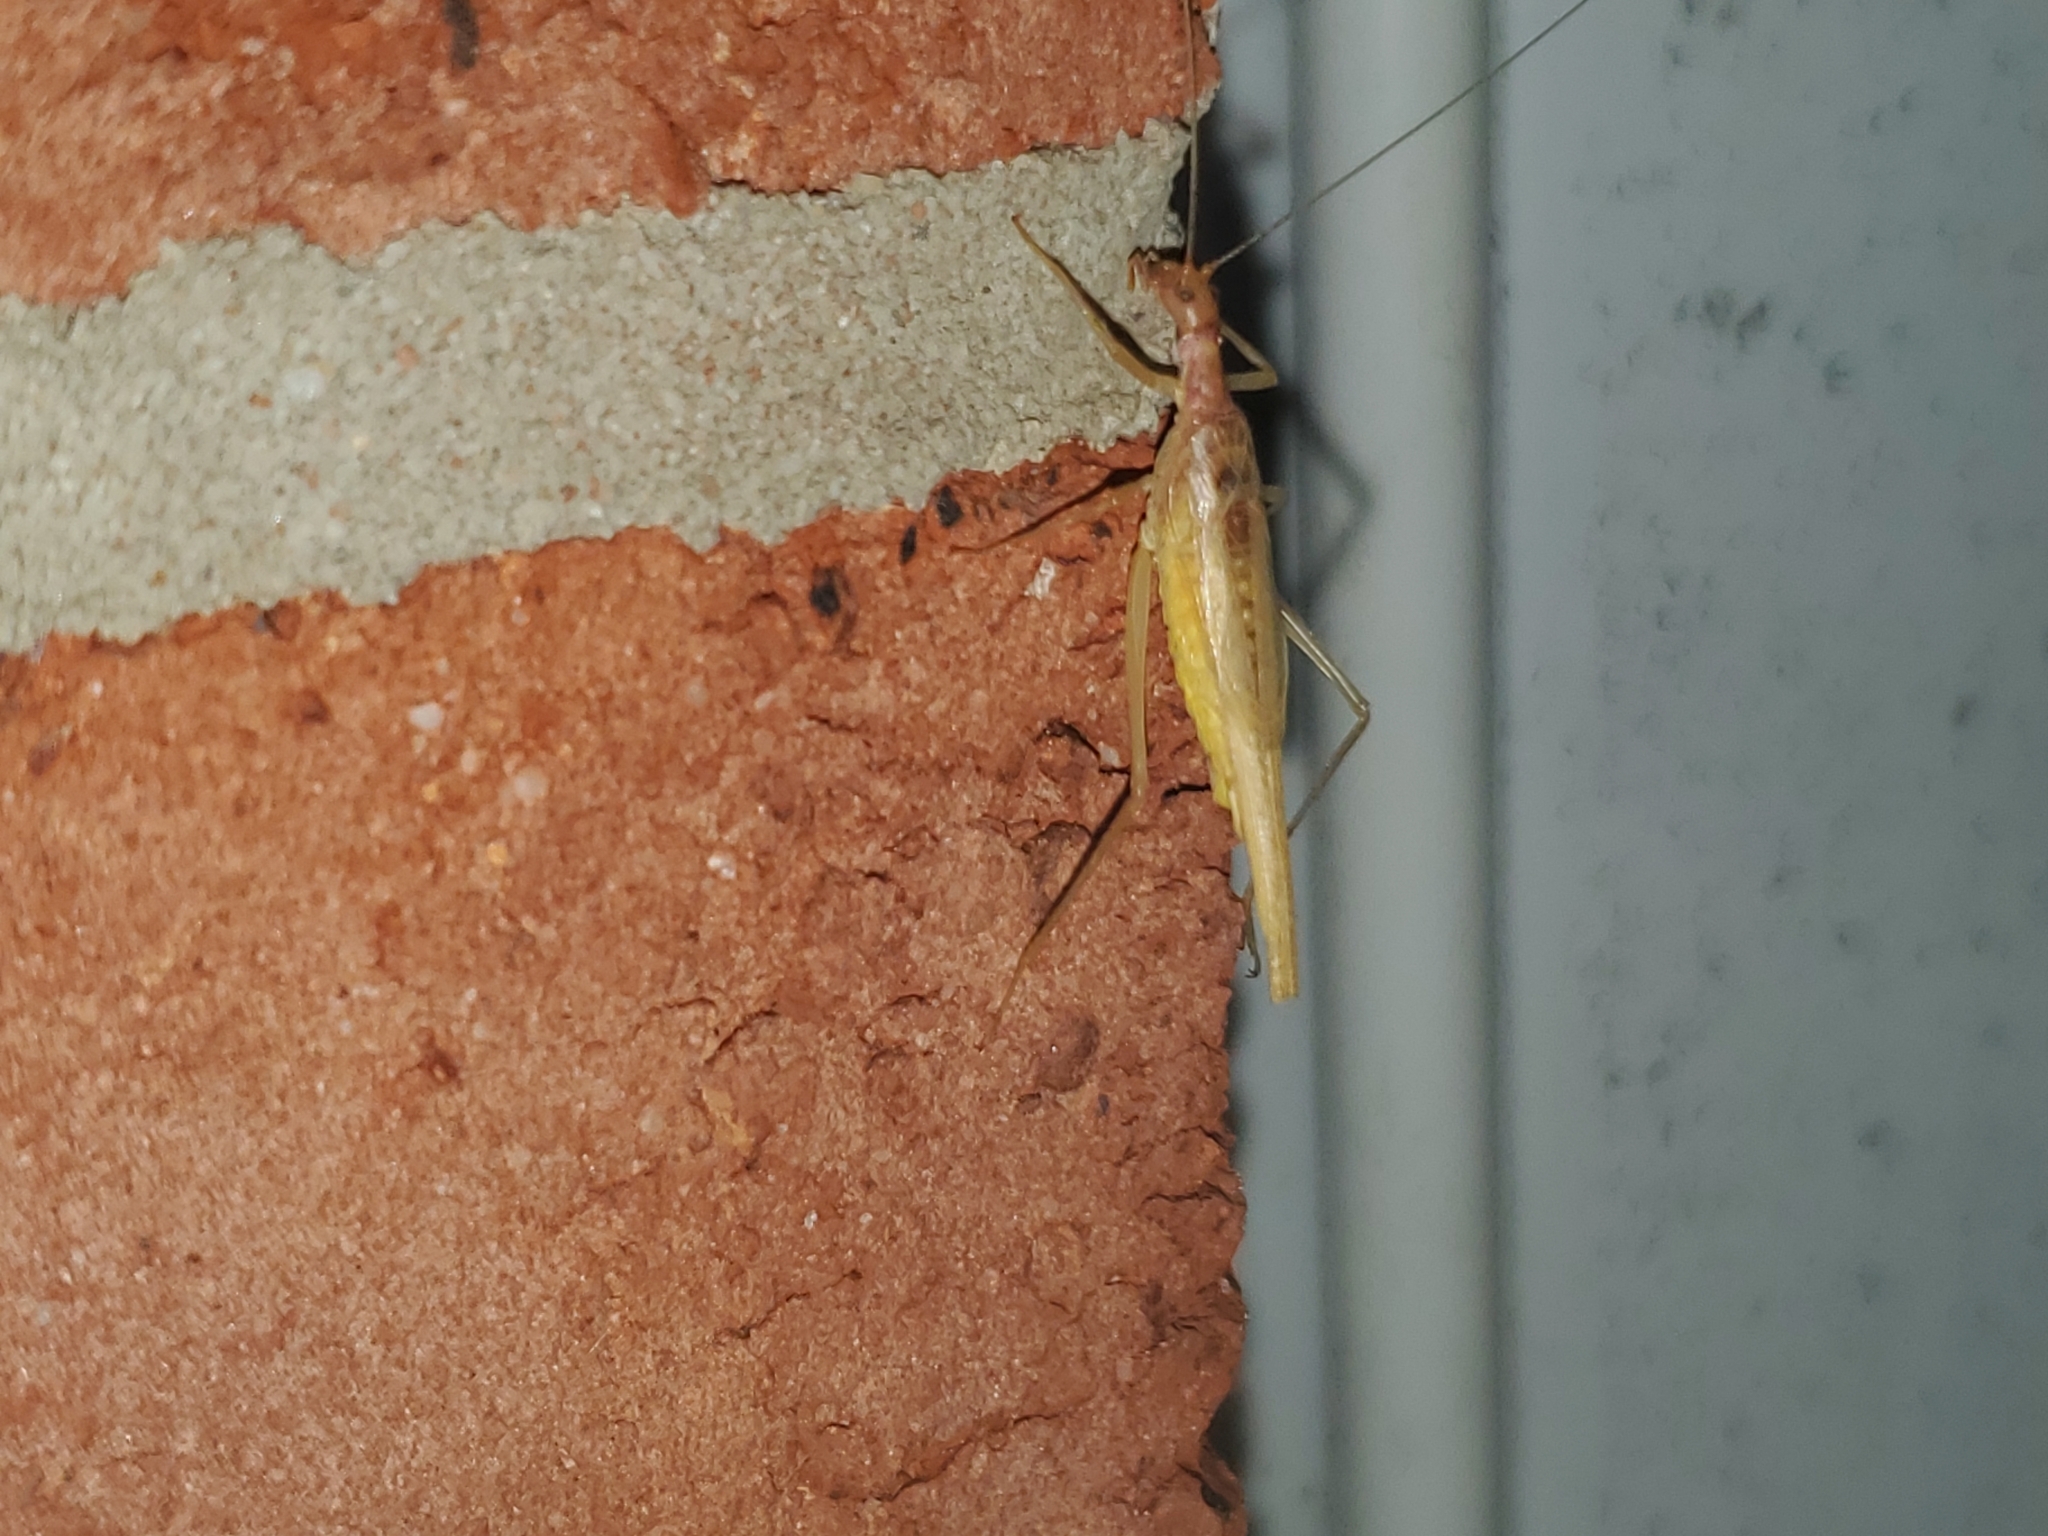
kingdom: Animalia
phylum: Arthropoda
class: Insecta
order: Orthoptera
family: Gryllidae
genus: Neoxabea
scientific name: Neoxabea bipunctata
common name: Two-spotted tree cricket
